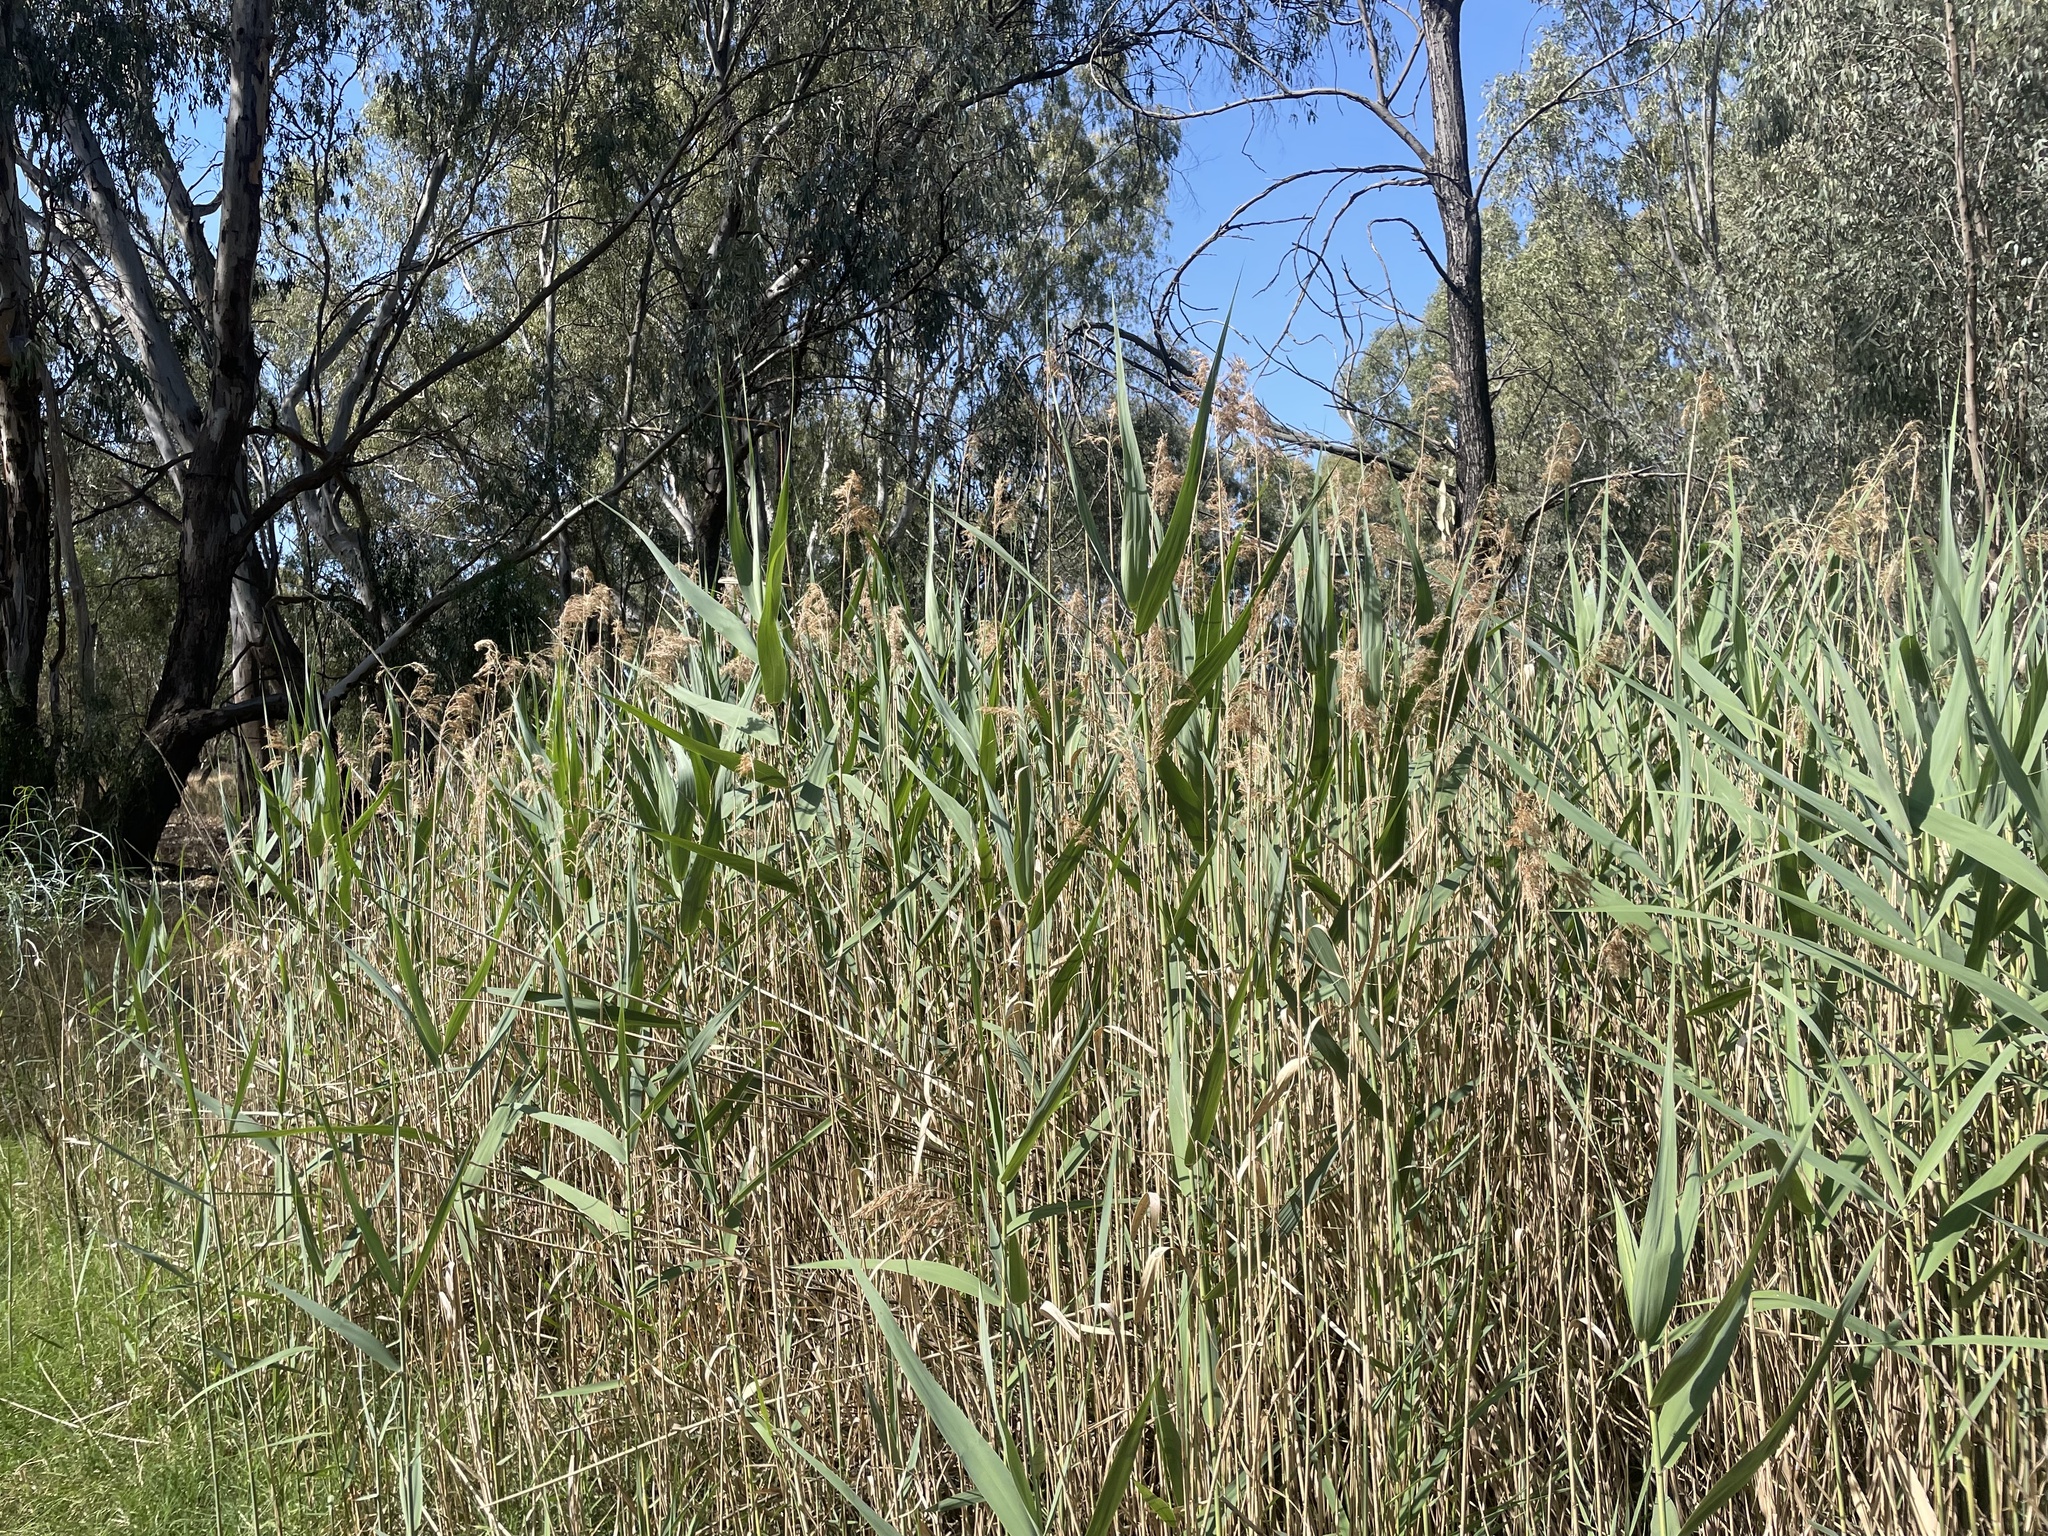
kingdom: Plantae
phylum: Tracheophyta
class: Liliopsida
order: Poales
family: Poaceae
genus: Phragmites
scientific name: Phragmites australis
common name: Common reed
